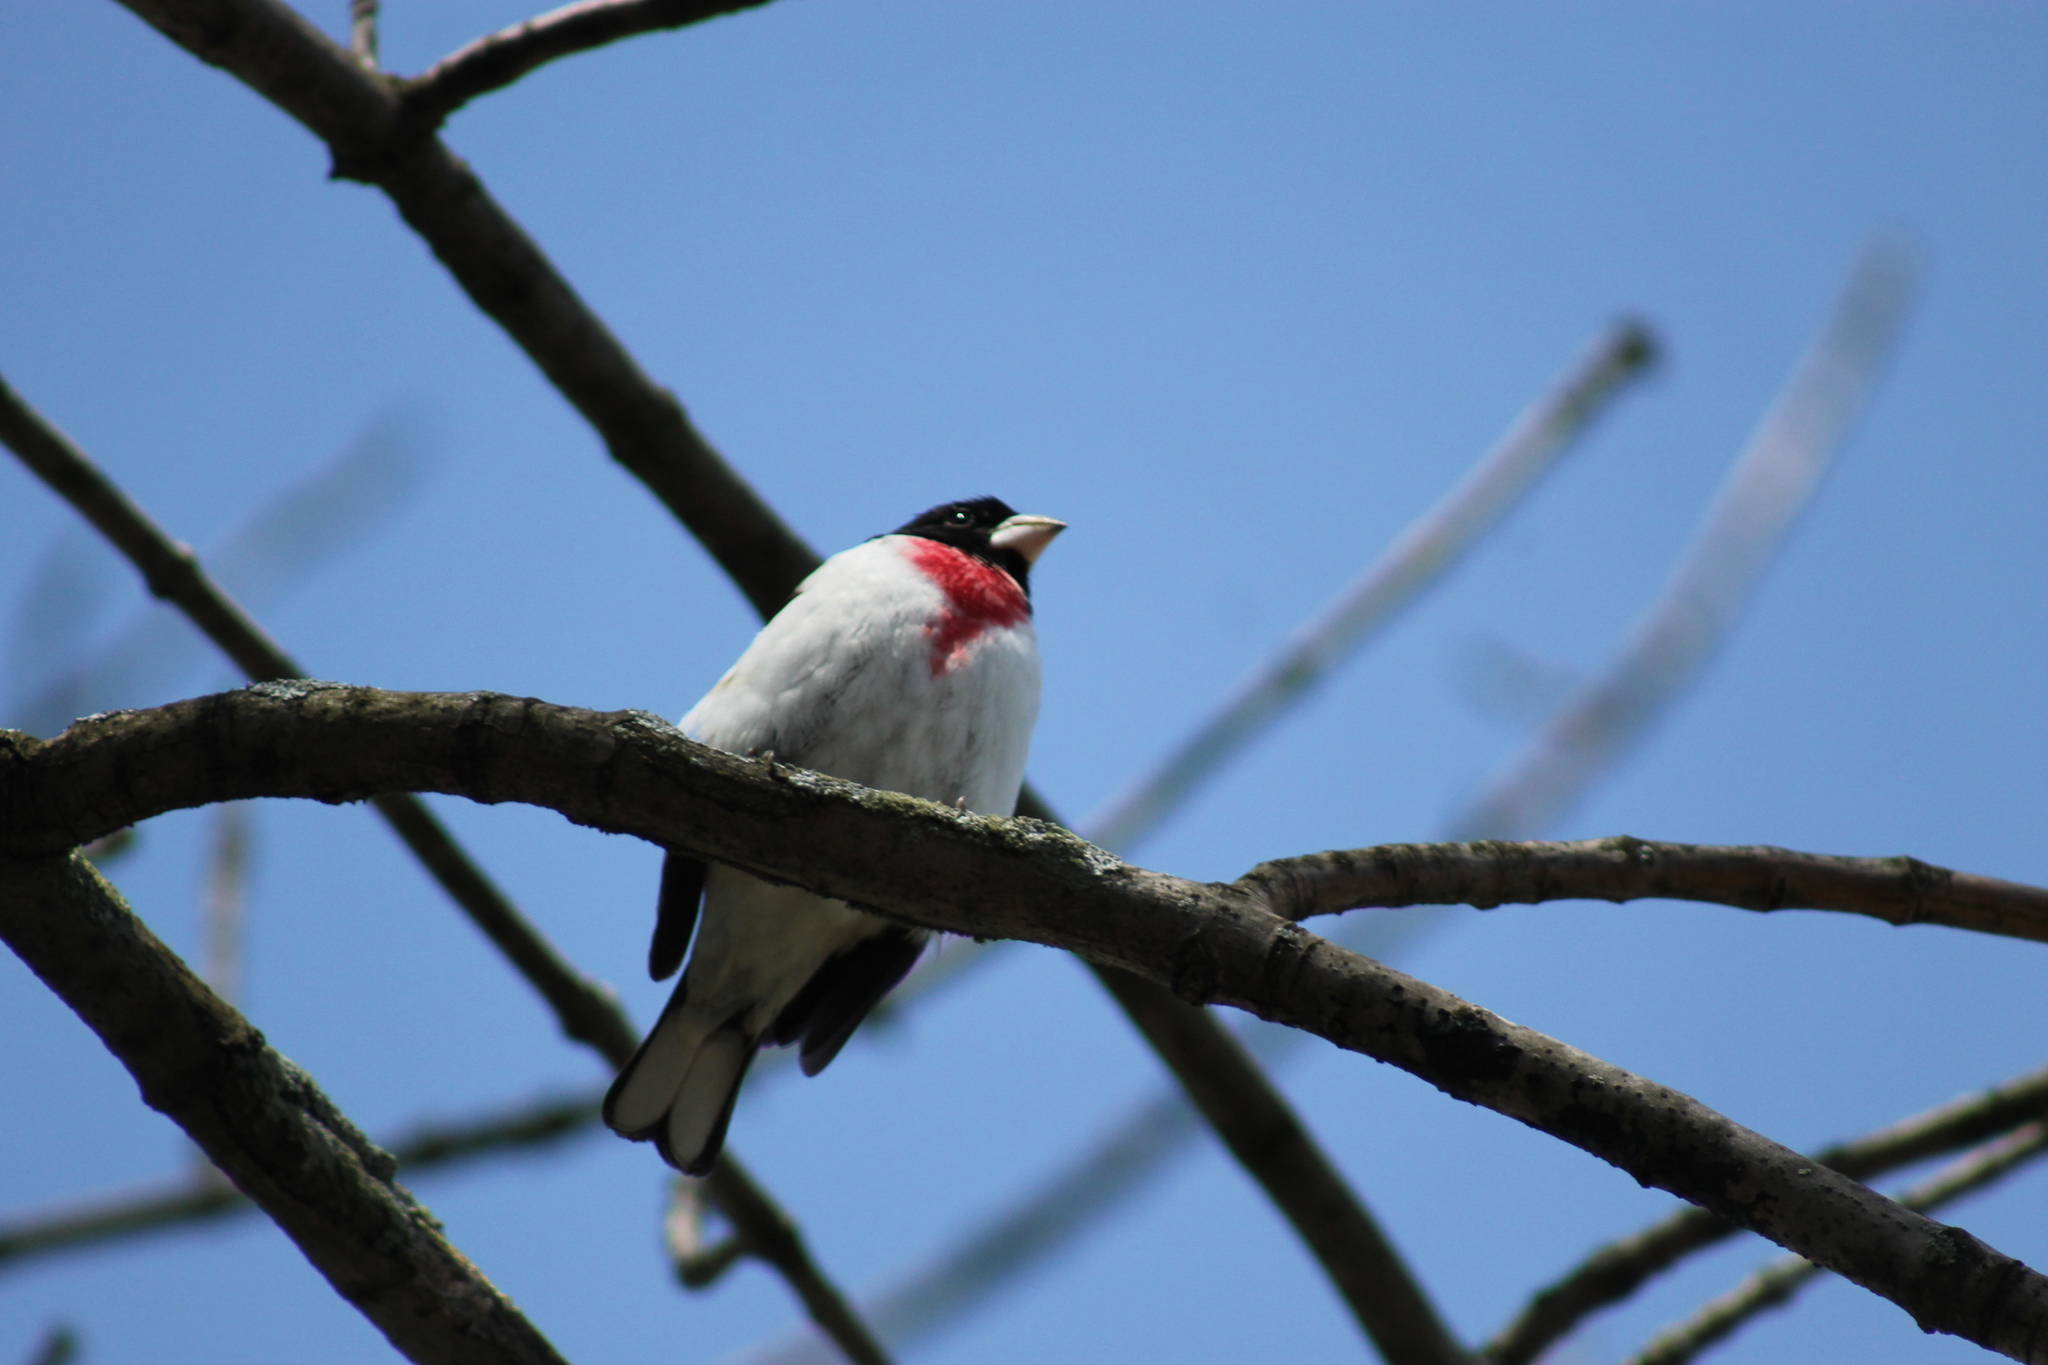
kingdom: Animalia
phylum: Chordata
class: Aves
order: Passeriformes
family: Cardinalidae
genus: Pheucticus
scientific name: Pheucticus ludovicianus
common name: Rose-breasted grosbeak
